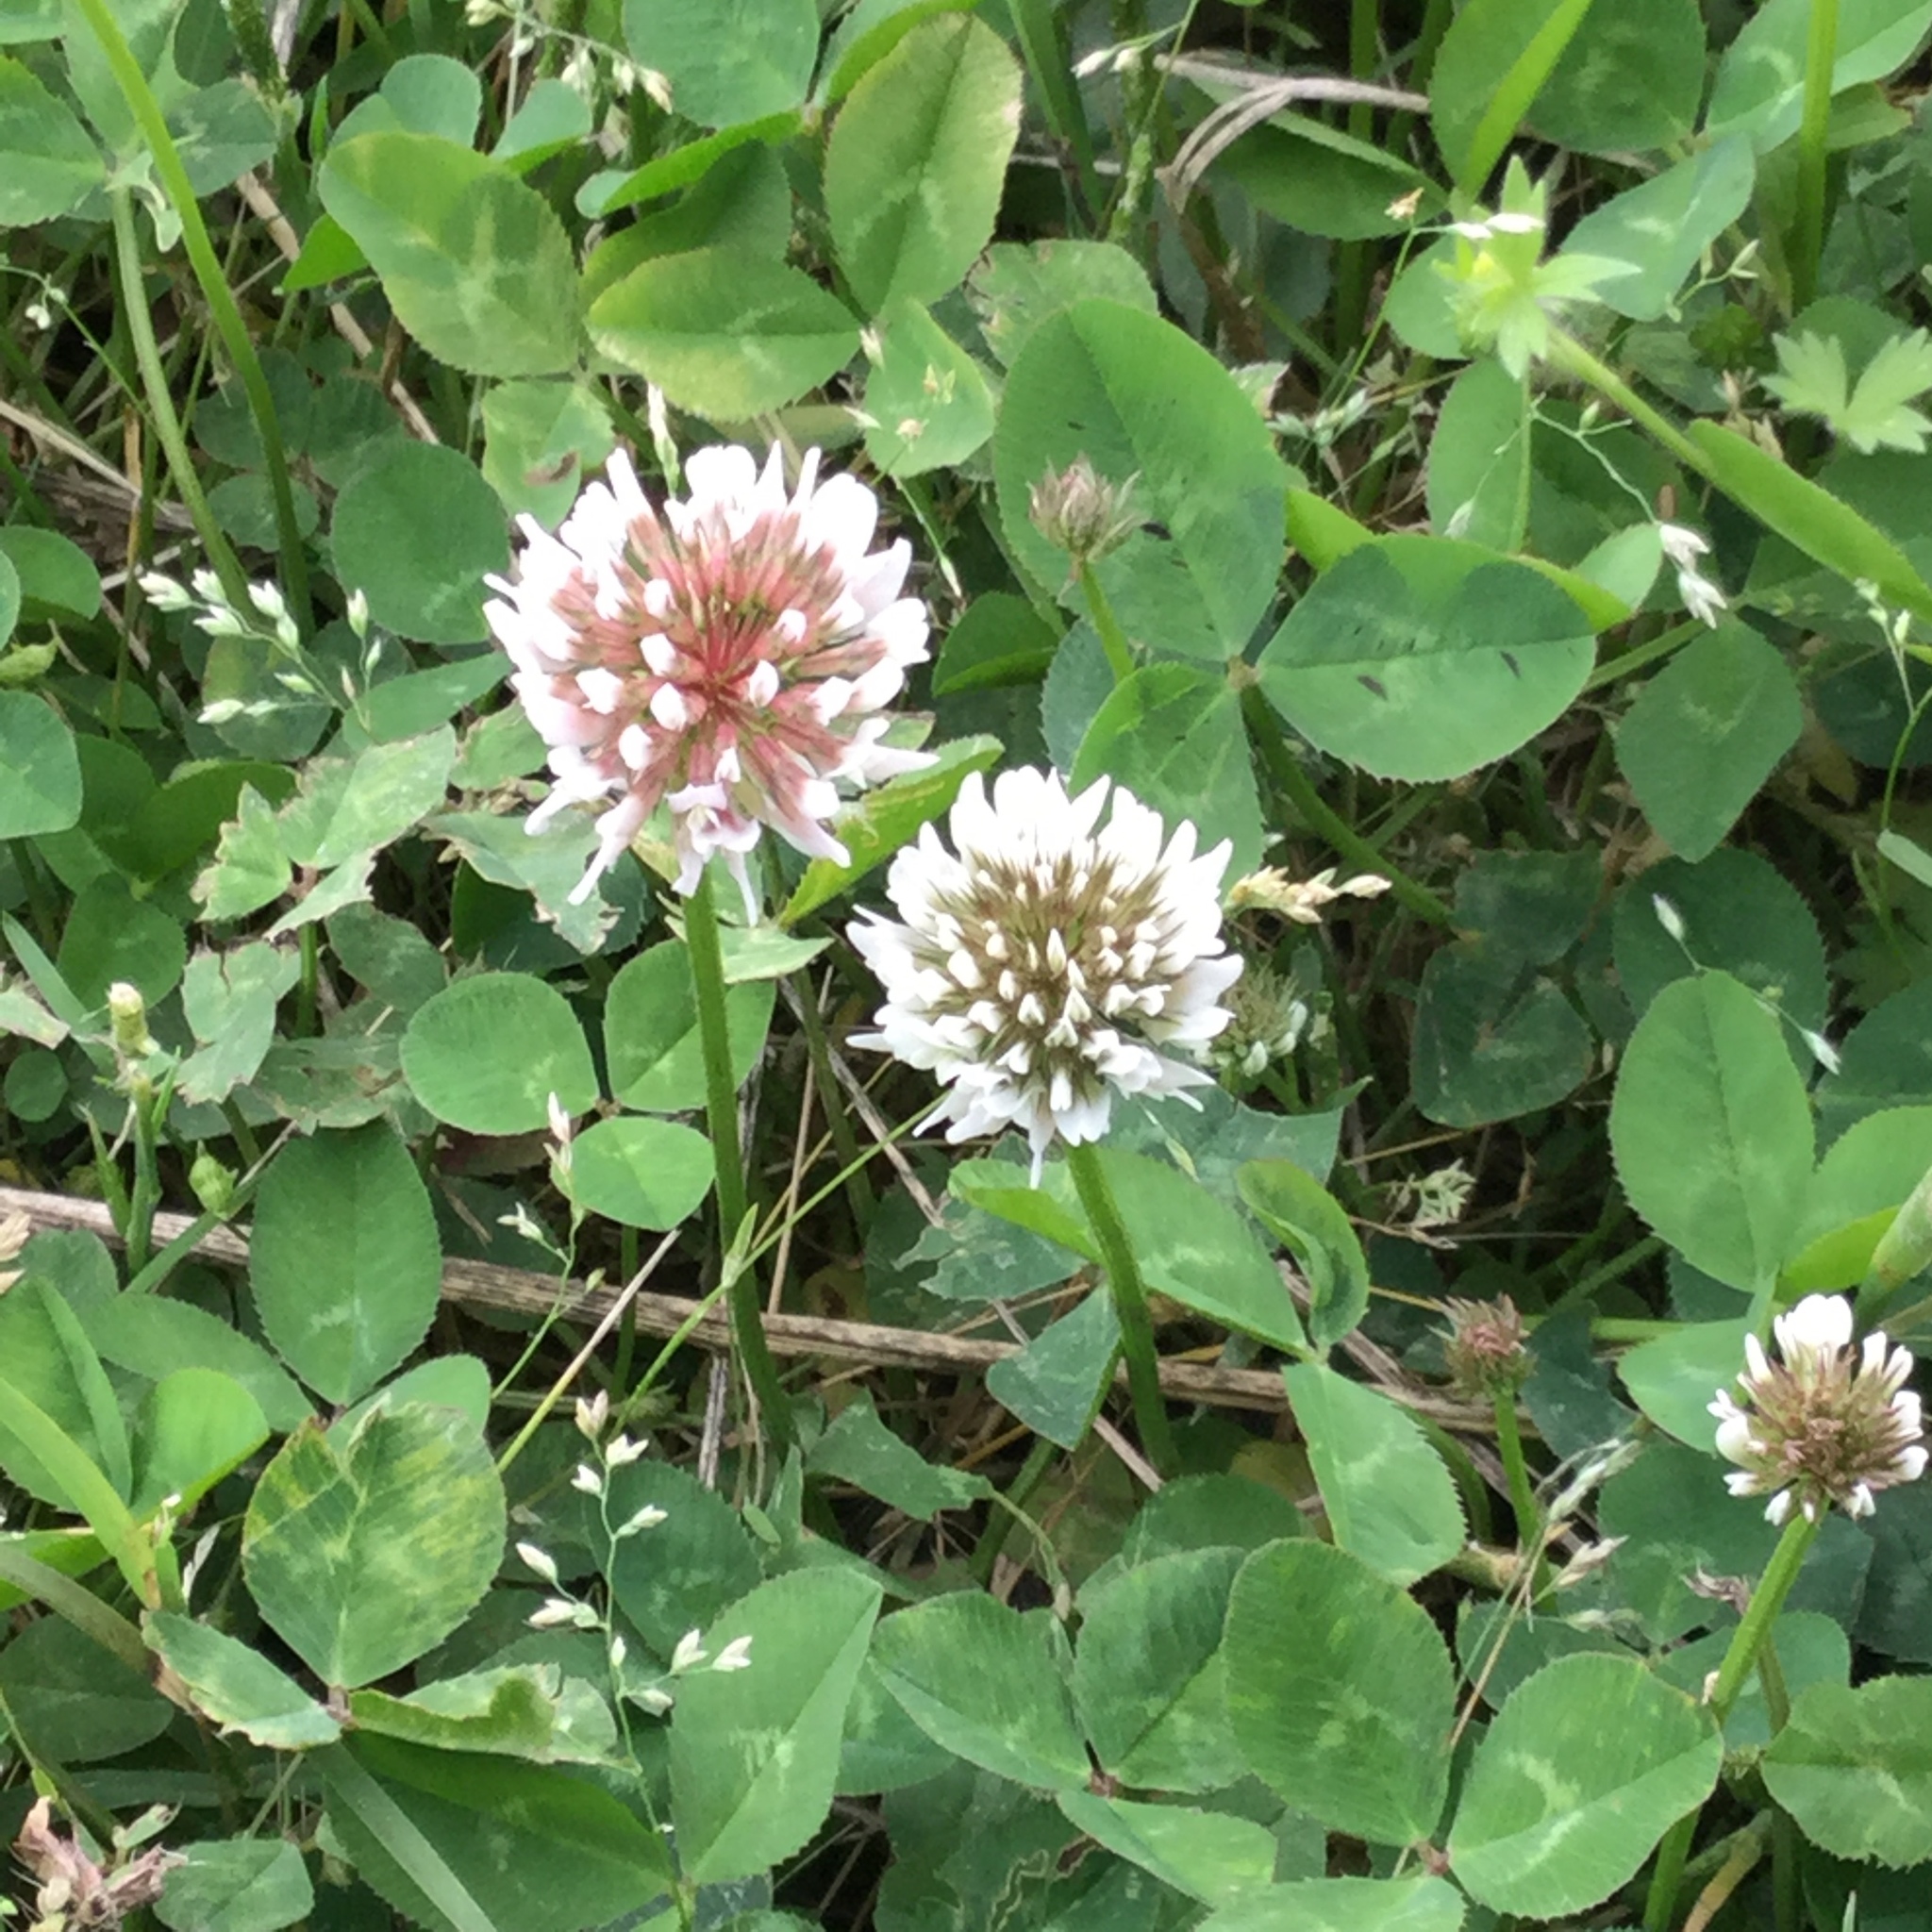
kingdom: Plantae
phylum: Tracheophyta
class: Magnoliopsida
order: Fabales
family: Fabaceae
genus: Trifolium
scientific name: Trifolium repens
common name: White clover
